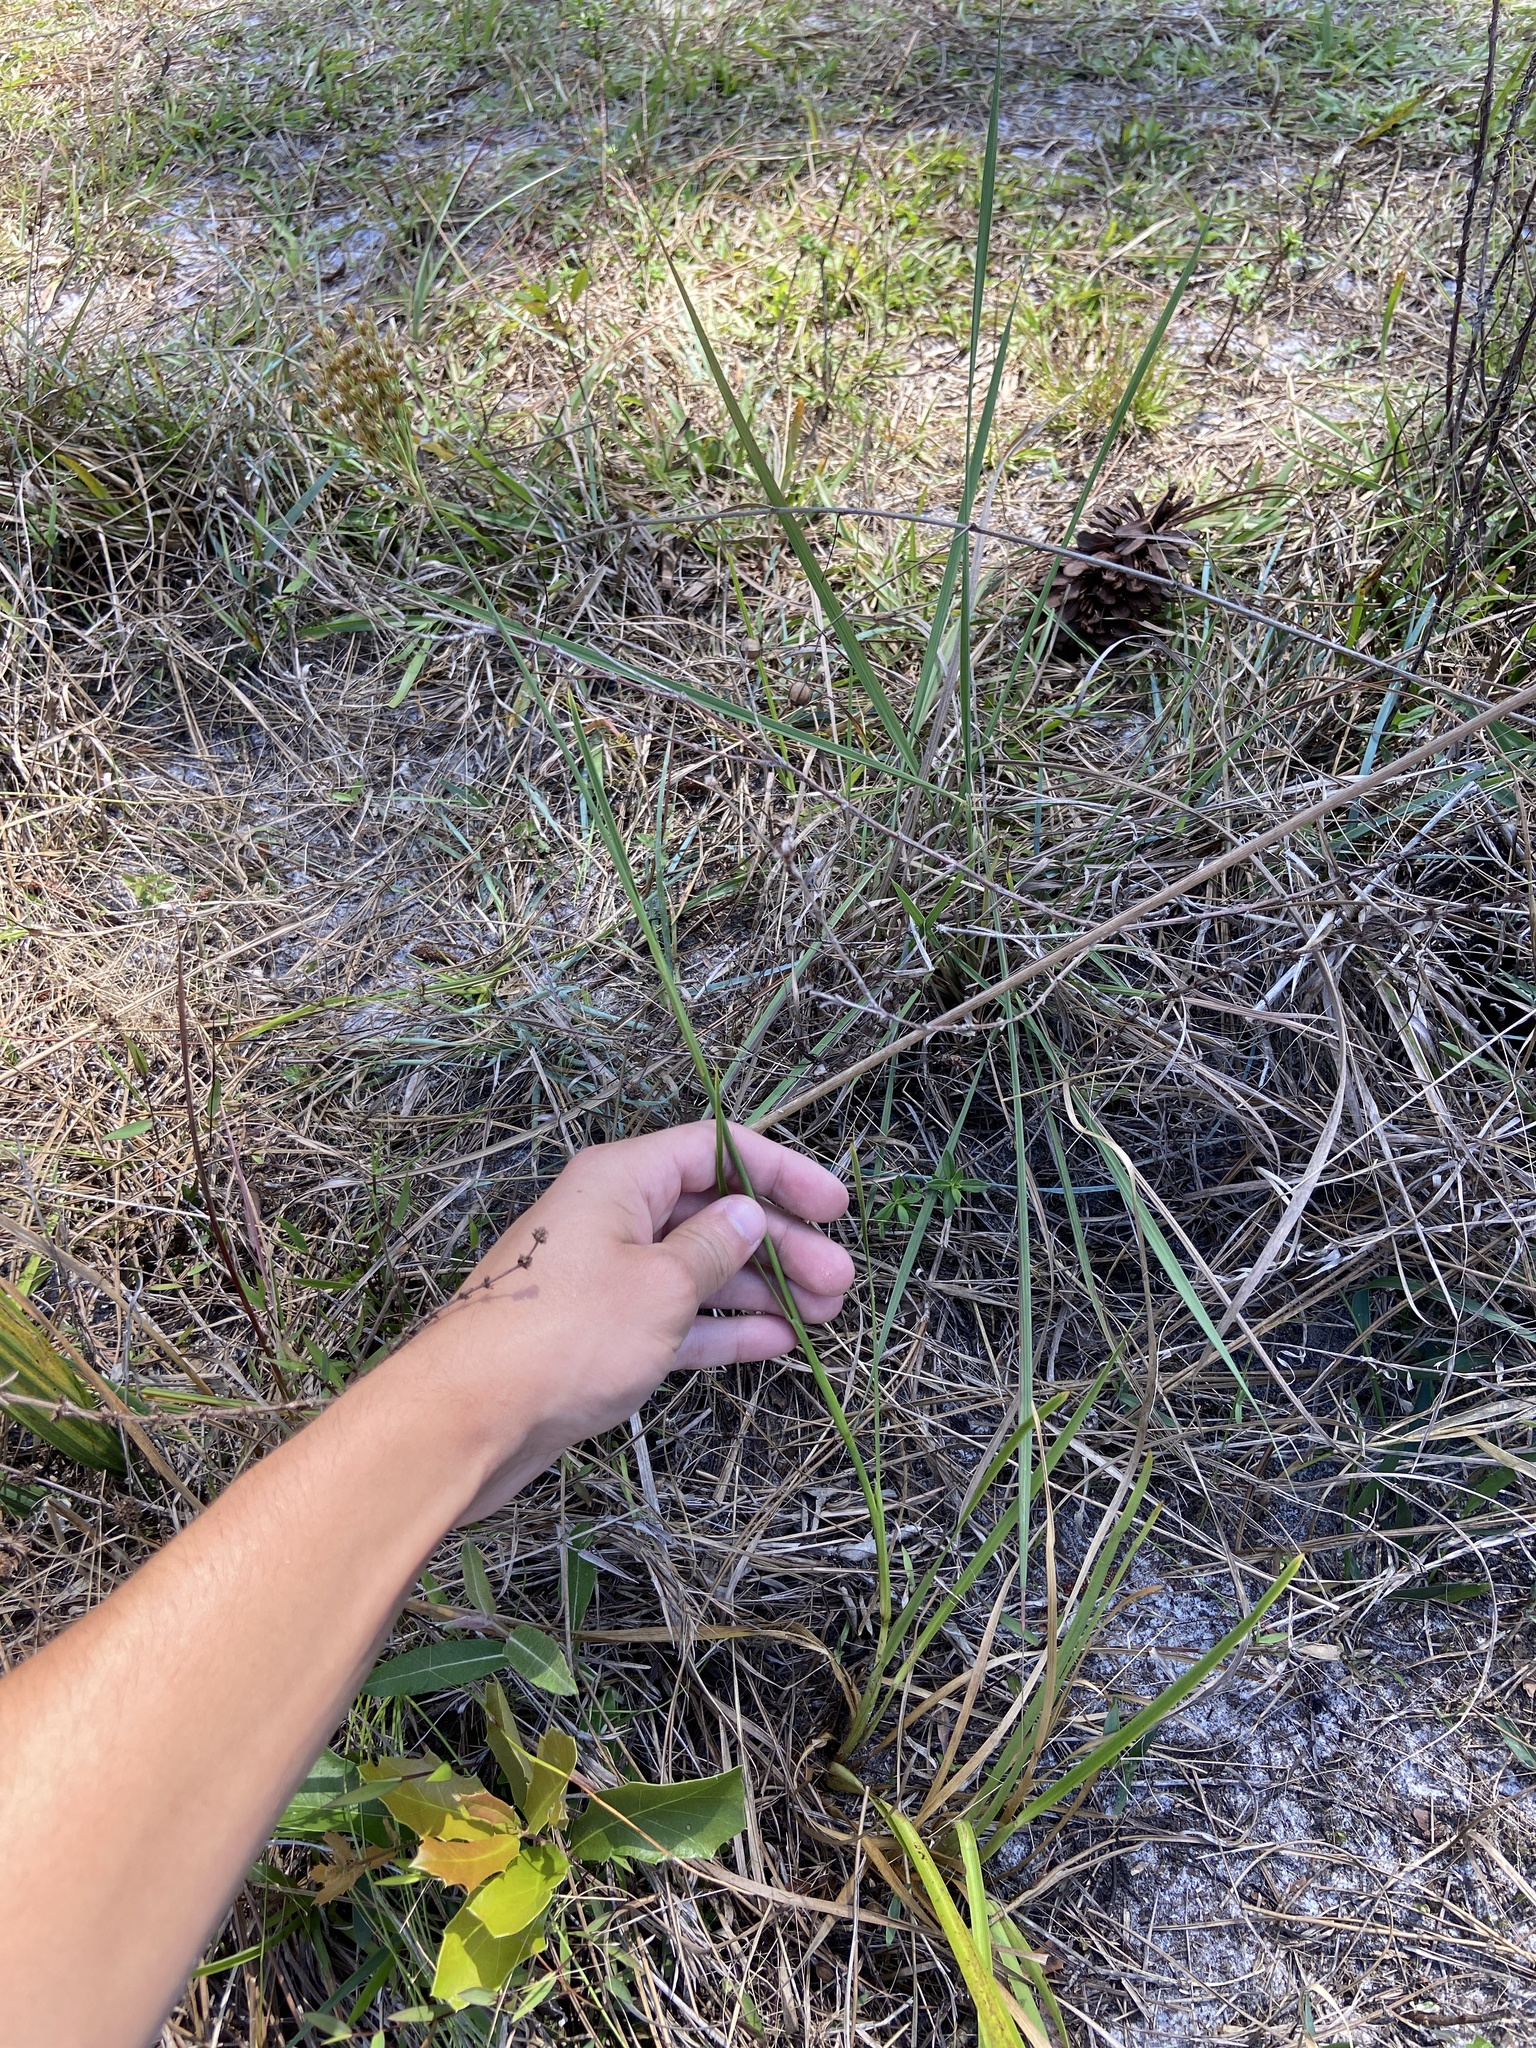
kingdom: Plantae
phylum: Tracheophyta
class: Liliopsida
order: Poales
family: Juncaceae
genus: Juncus
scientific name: Juncus biflorus
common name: Two-flowered rush
